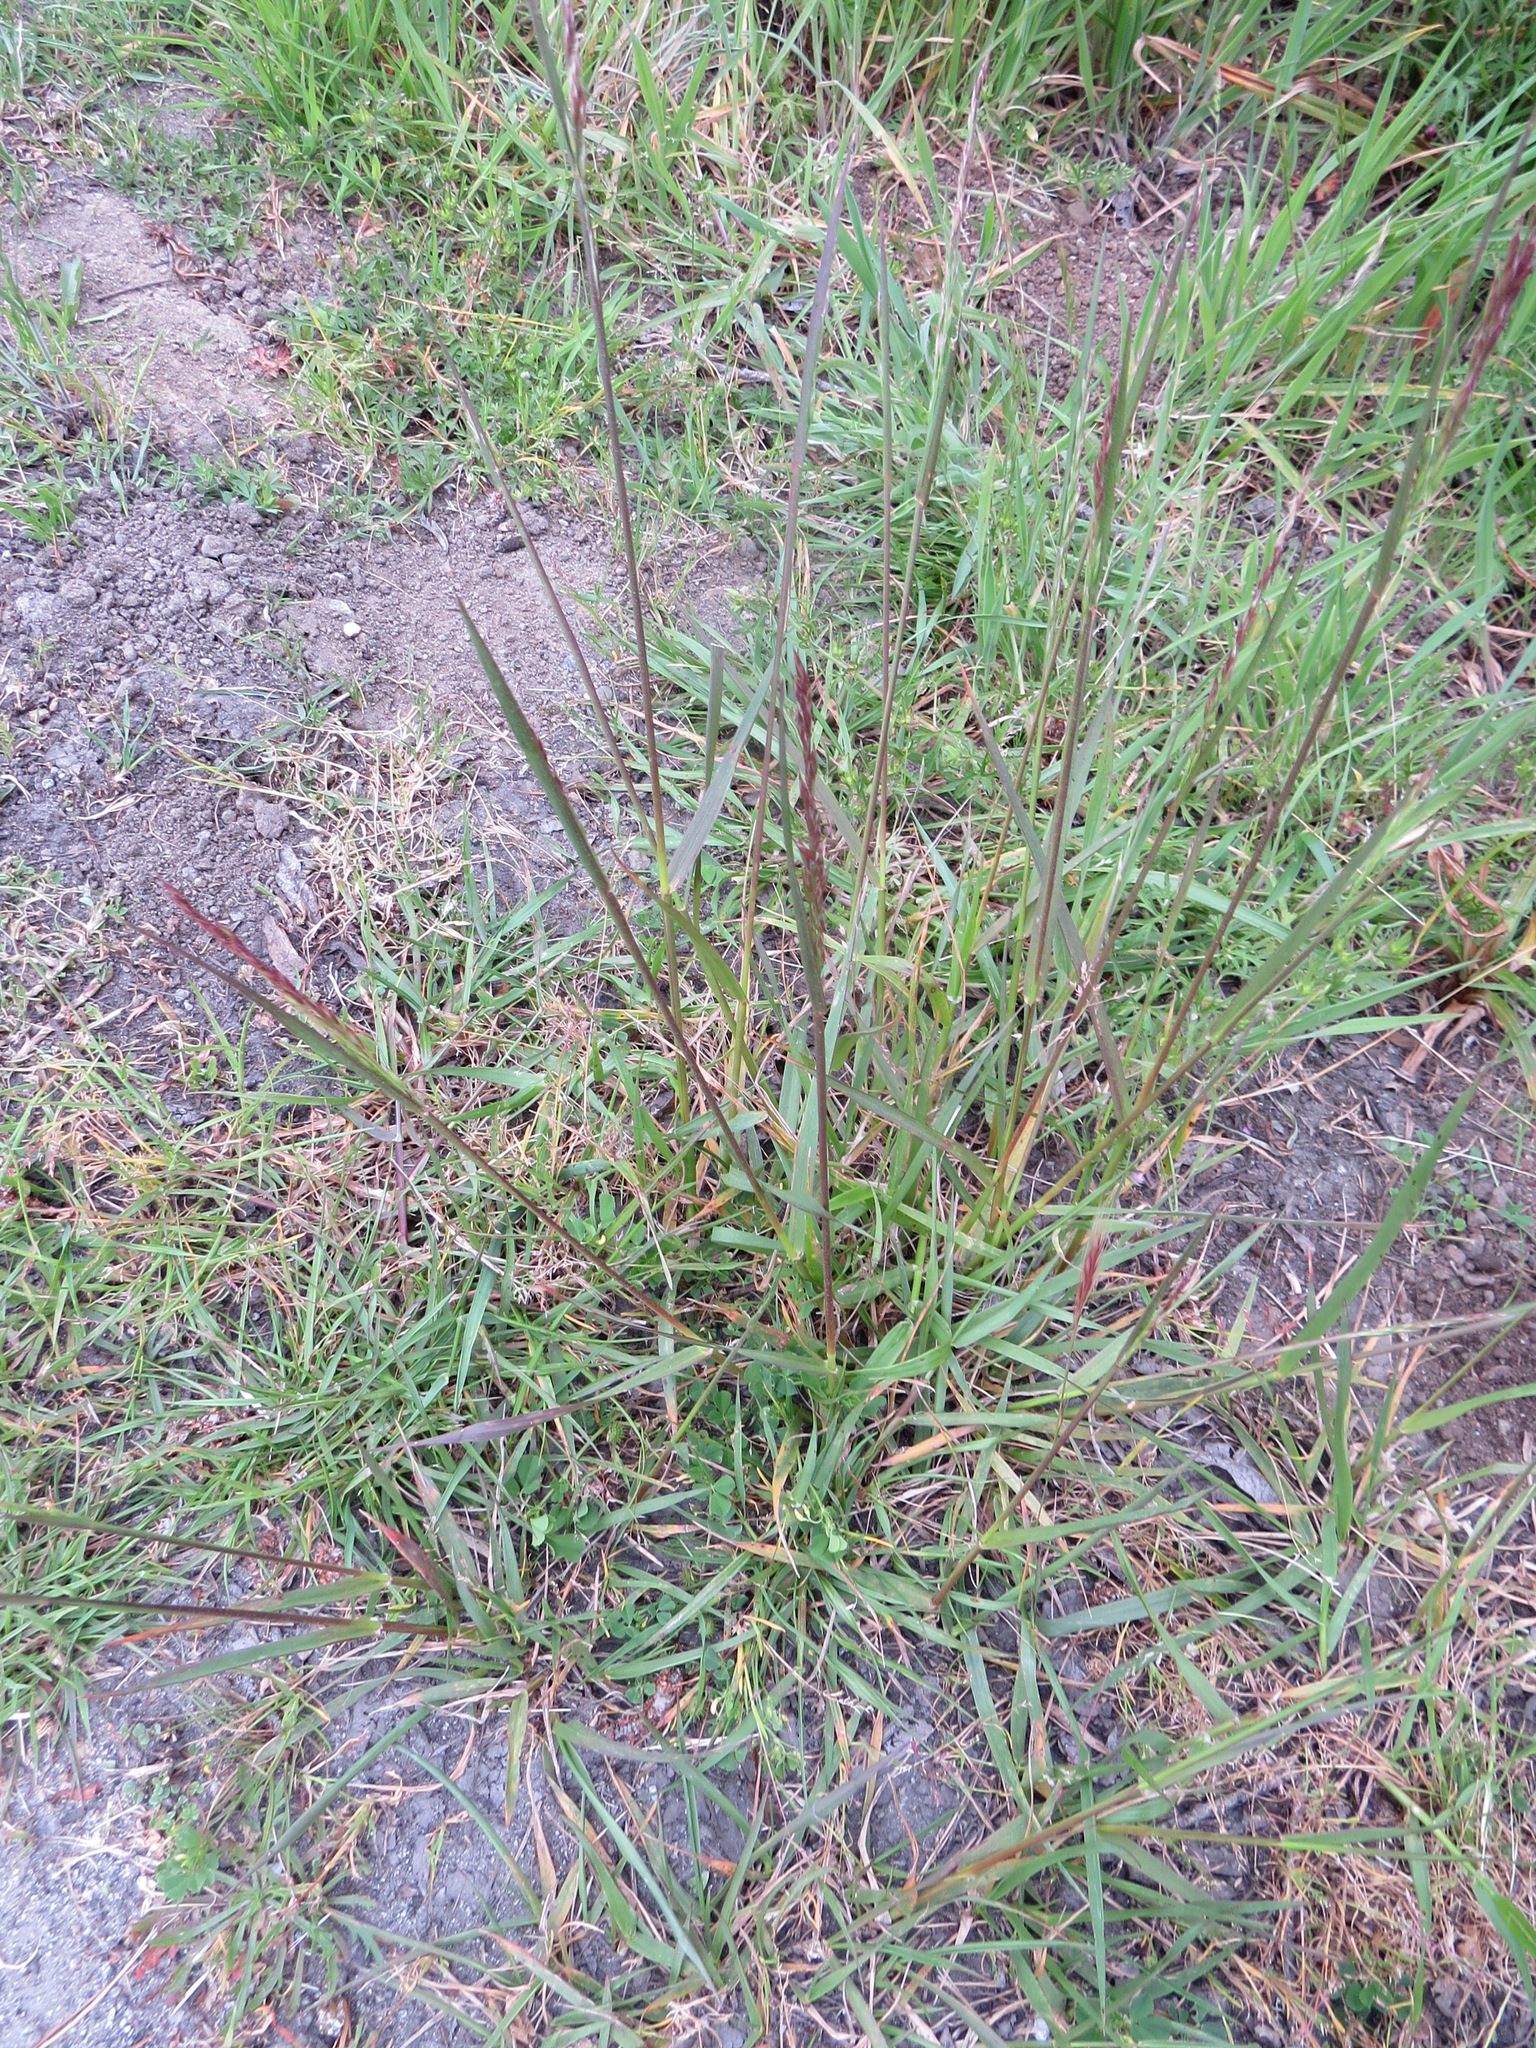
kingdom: Plantae
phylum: Tracheophyta
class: Liliopsida
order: Poales
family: Poaceae
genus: Lolium
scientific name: Lolium arundinaceum
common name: Reed fescue
